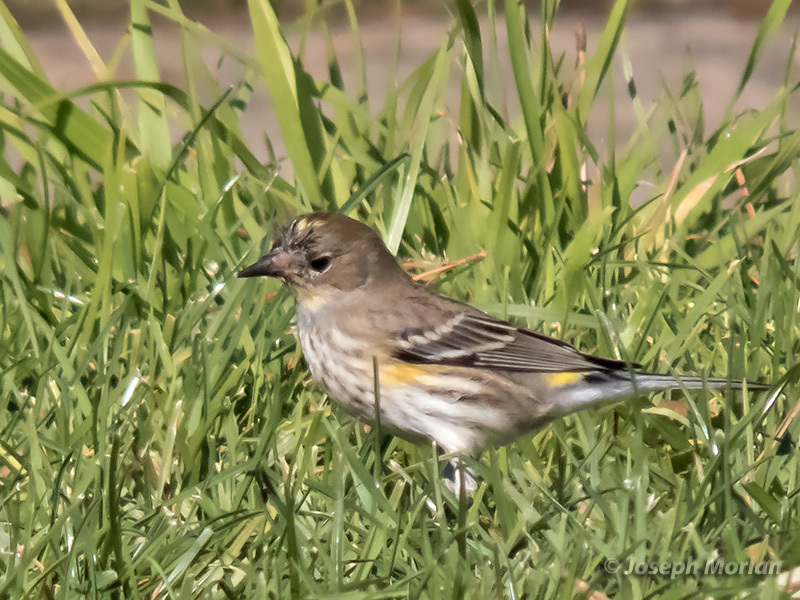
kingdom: Animalia
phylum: Chordata
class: Aves
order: Passeriformes
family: Parulidae
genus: Setophaga
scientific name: Setophaga coronata
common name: Myrtle warbler
